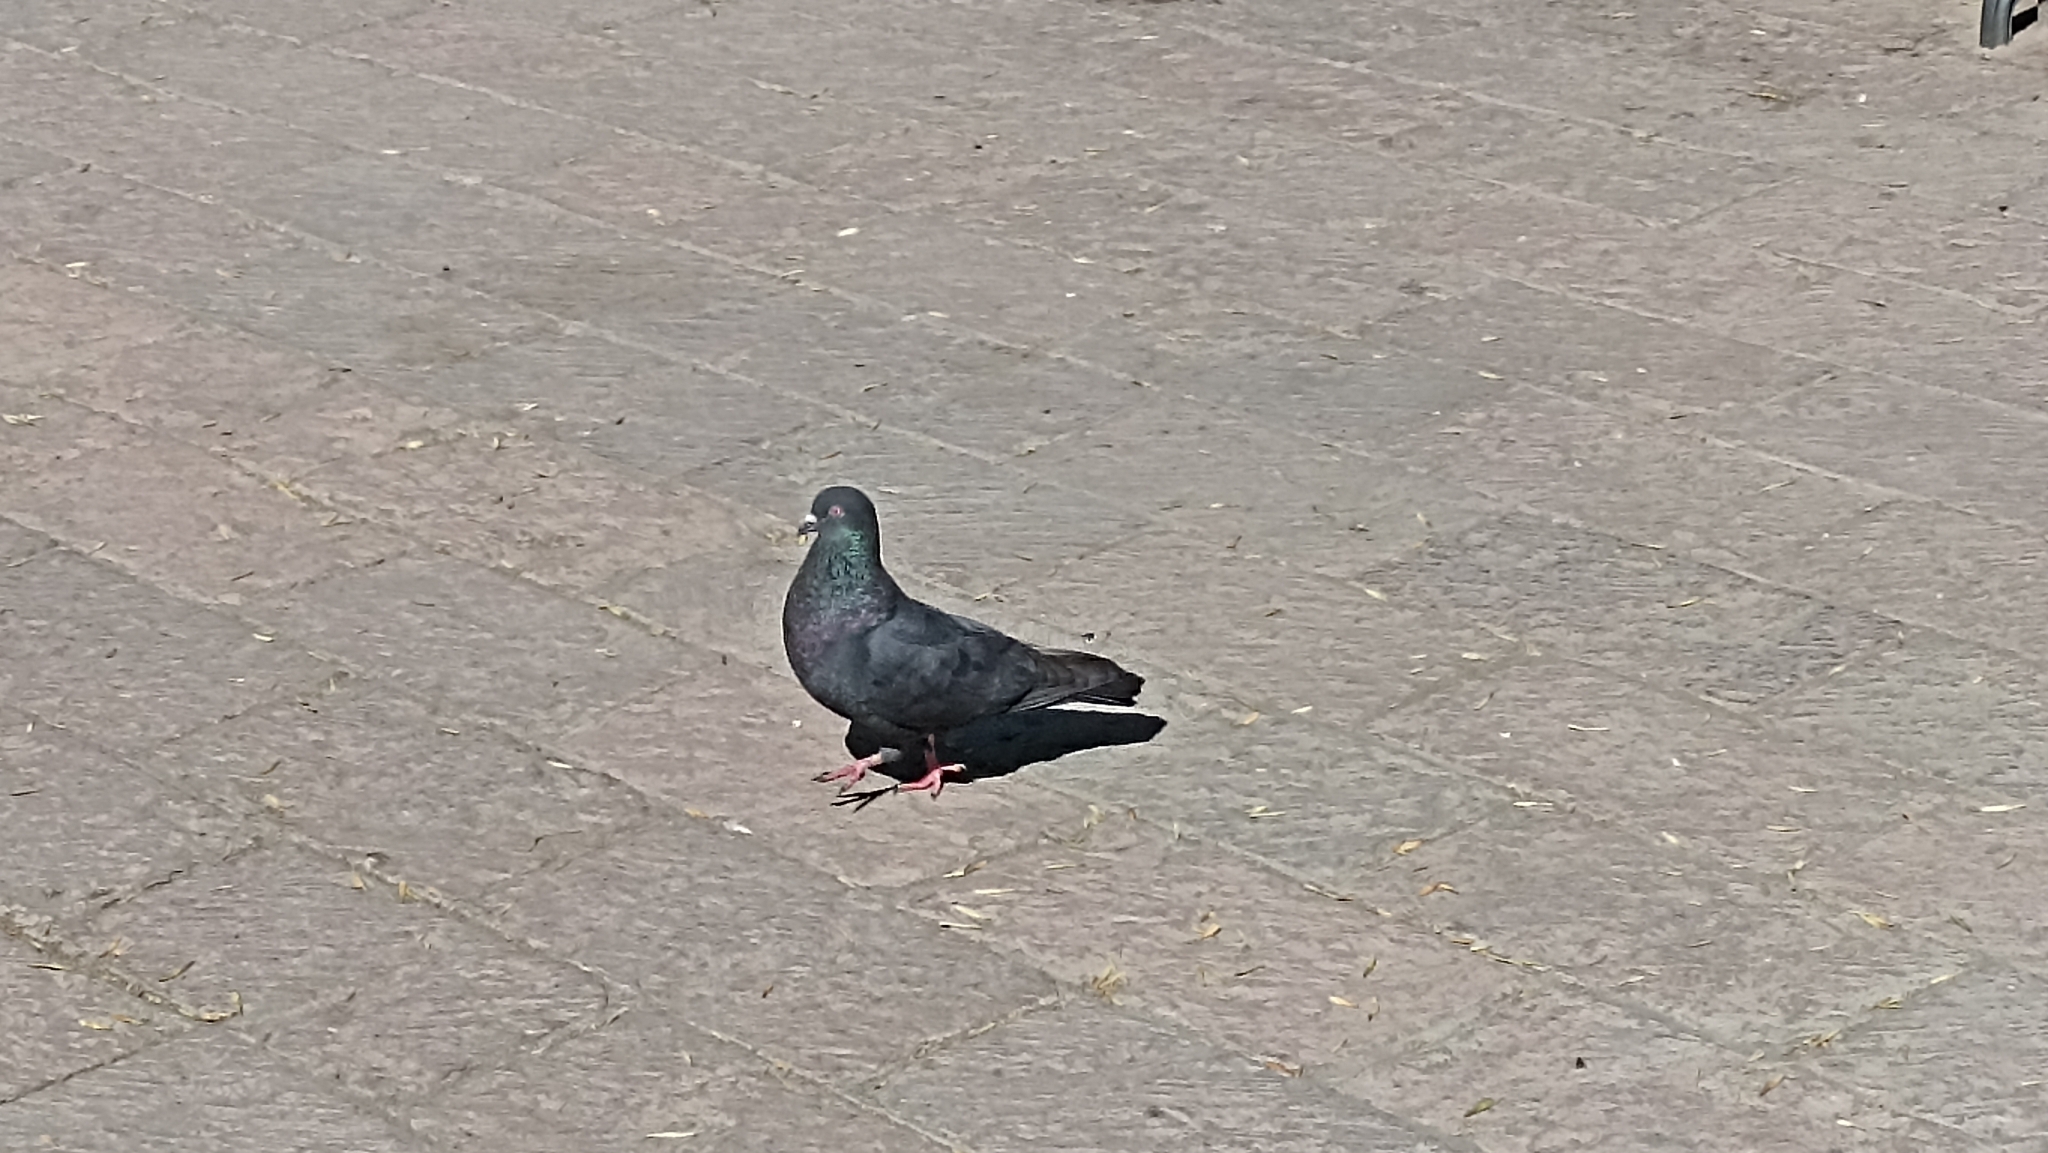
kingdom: Animalia
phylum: Chordata
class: Aves
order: Columbiformes
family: Columbidae
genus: Columba
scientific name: Columba livia
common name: Rock pigeon
